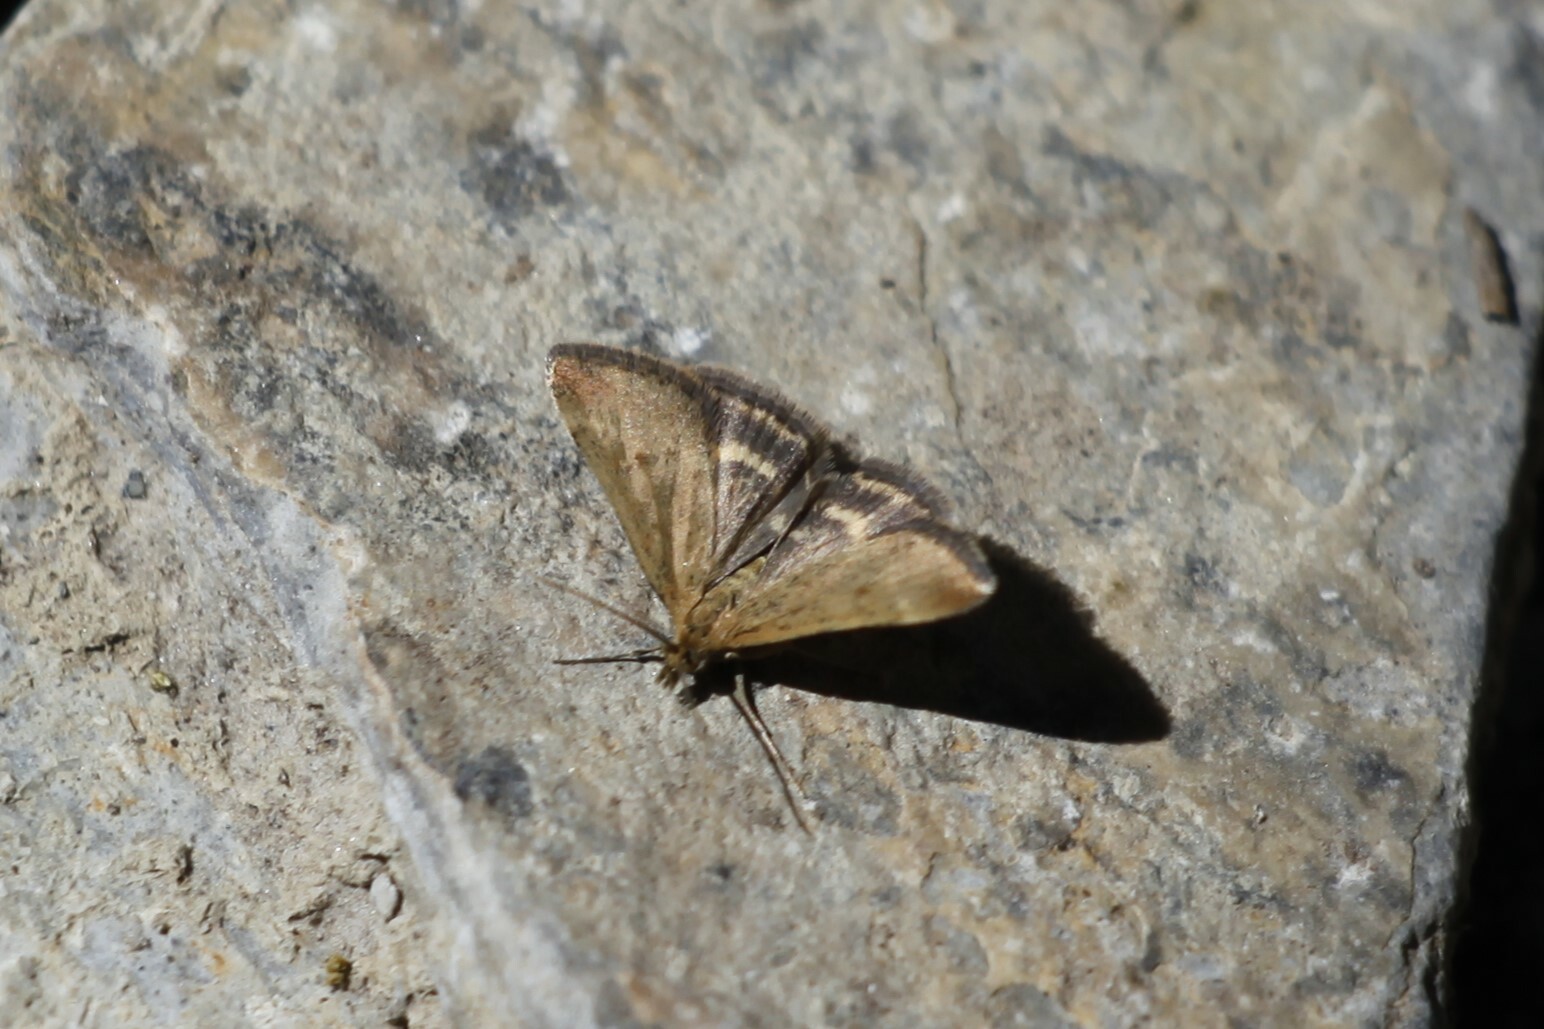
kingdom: Animalia
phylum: Arthropoda
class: Insecta
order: Lepidoptera
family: Crambidae
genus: Pyrausta
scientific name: Pyrausta despicata
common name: Straw-barred pearl
